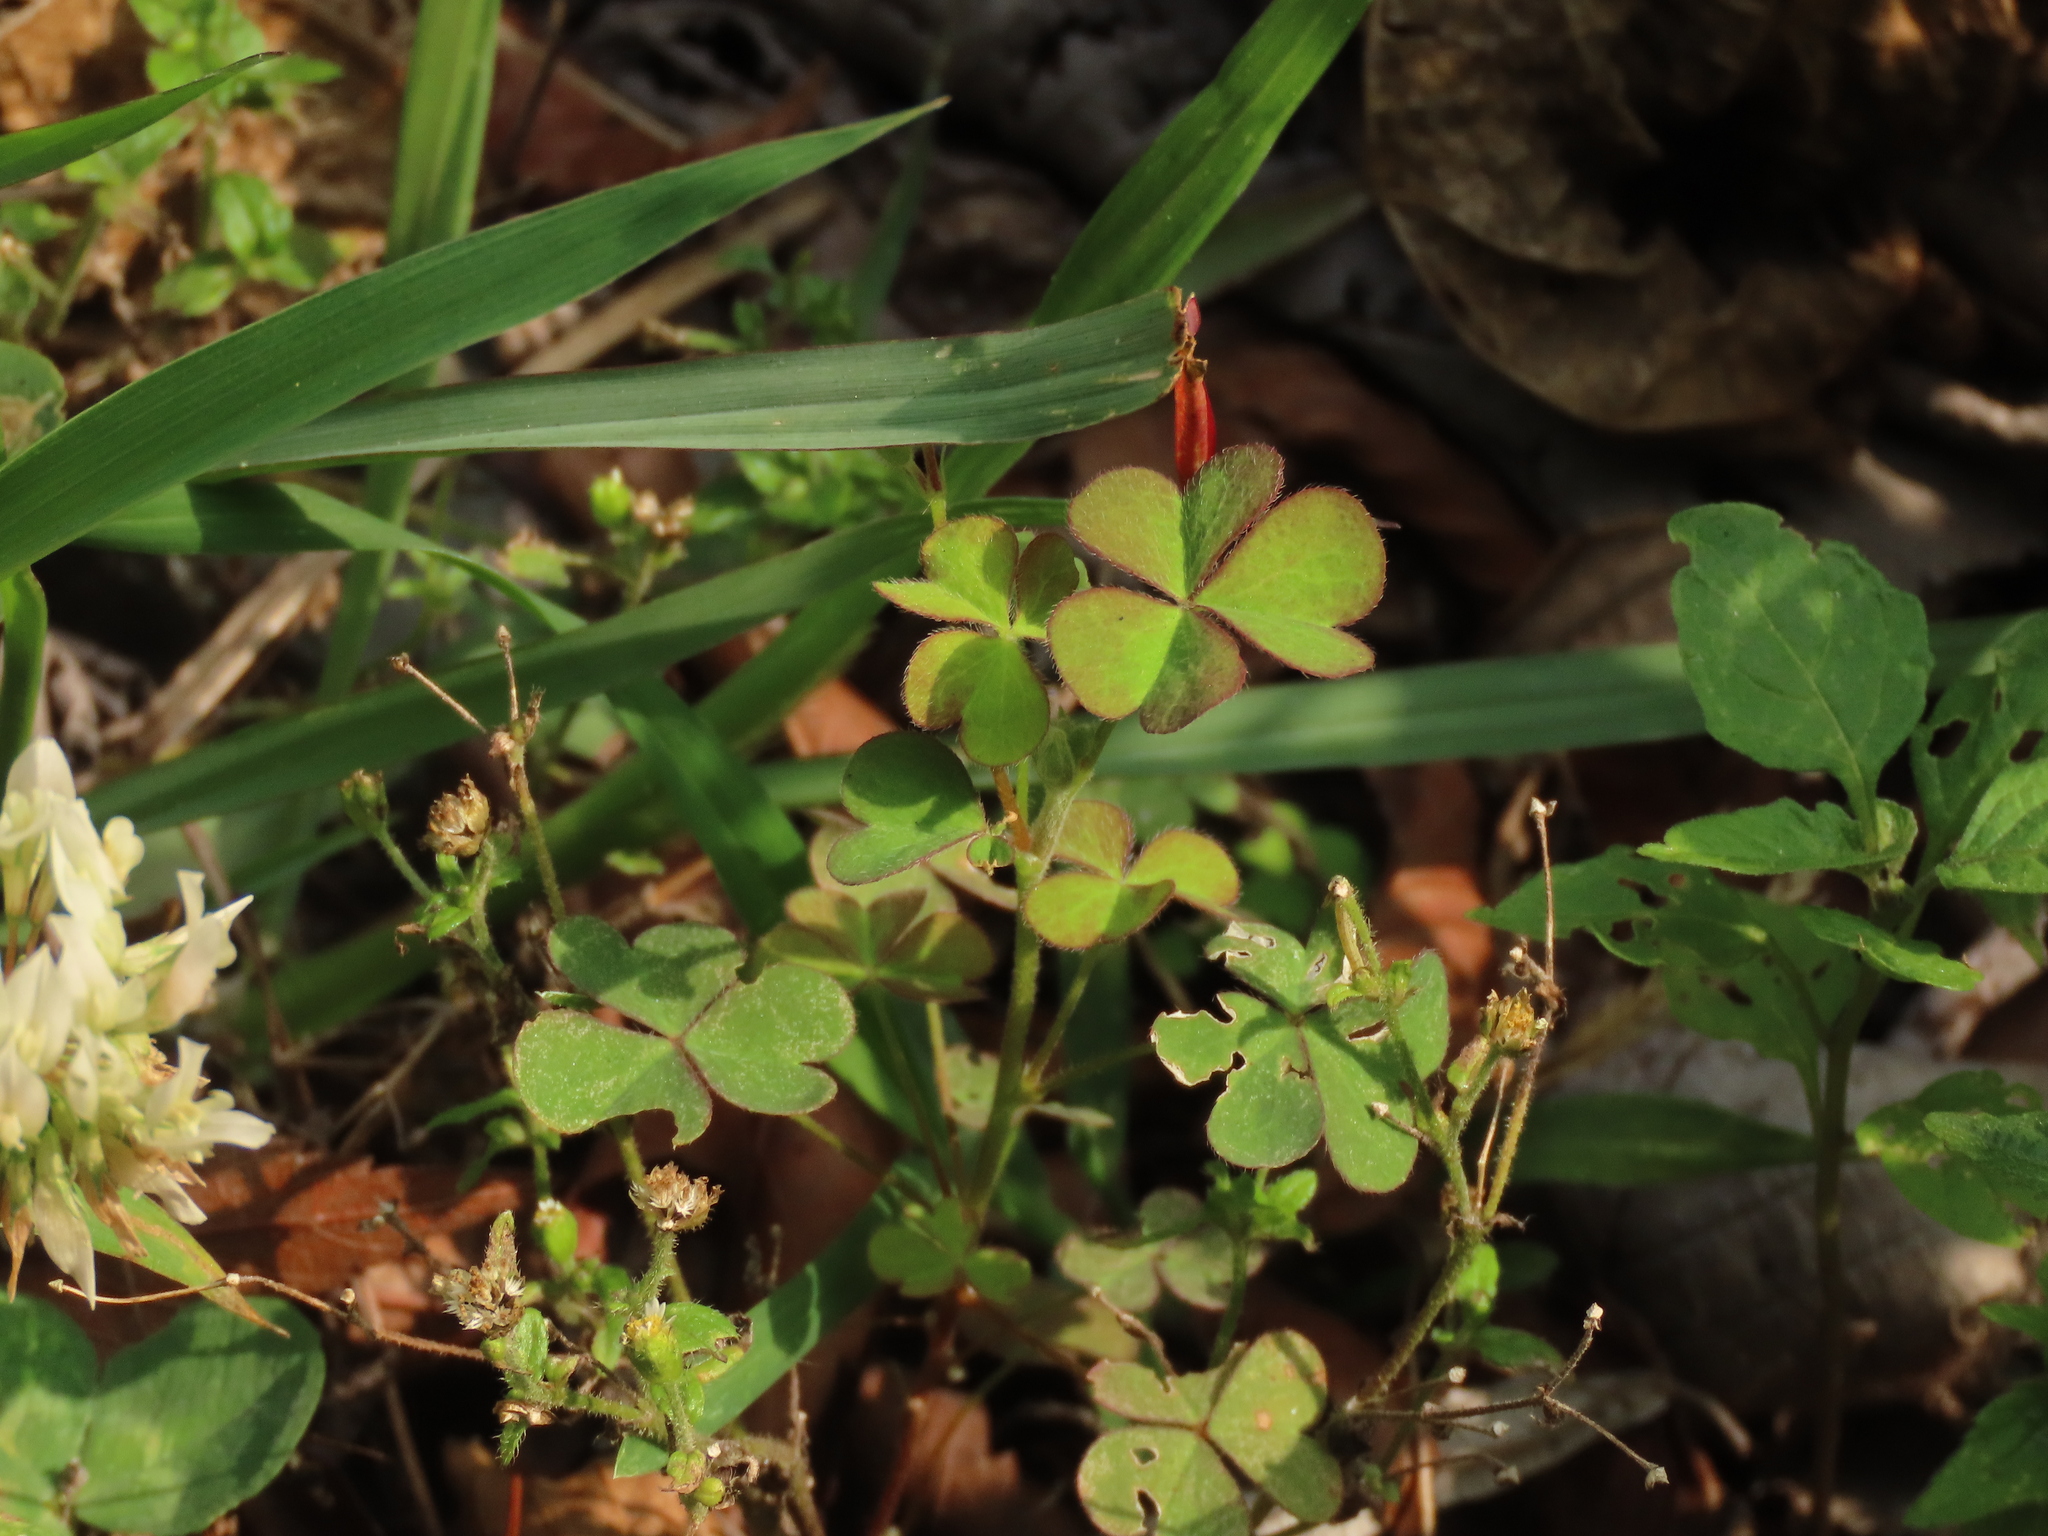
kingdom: Plantae
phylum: Tracheophyta
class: Magnoliopsida
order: Oxalidales
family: Oxalidaceae
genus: Oxalis
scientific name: Oxalis corniculata
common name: Procumbent yellow-sorrel
